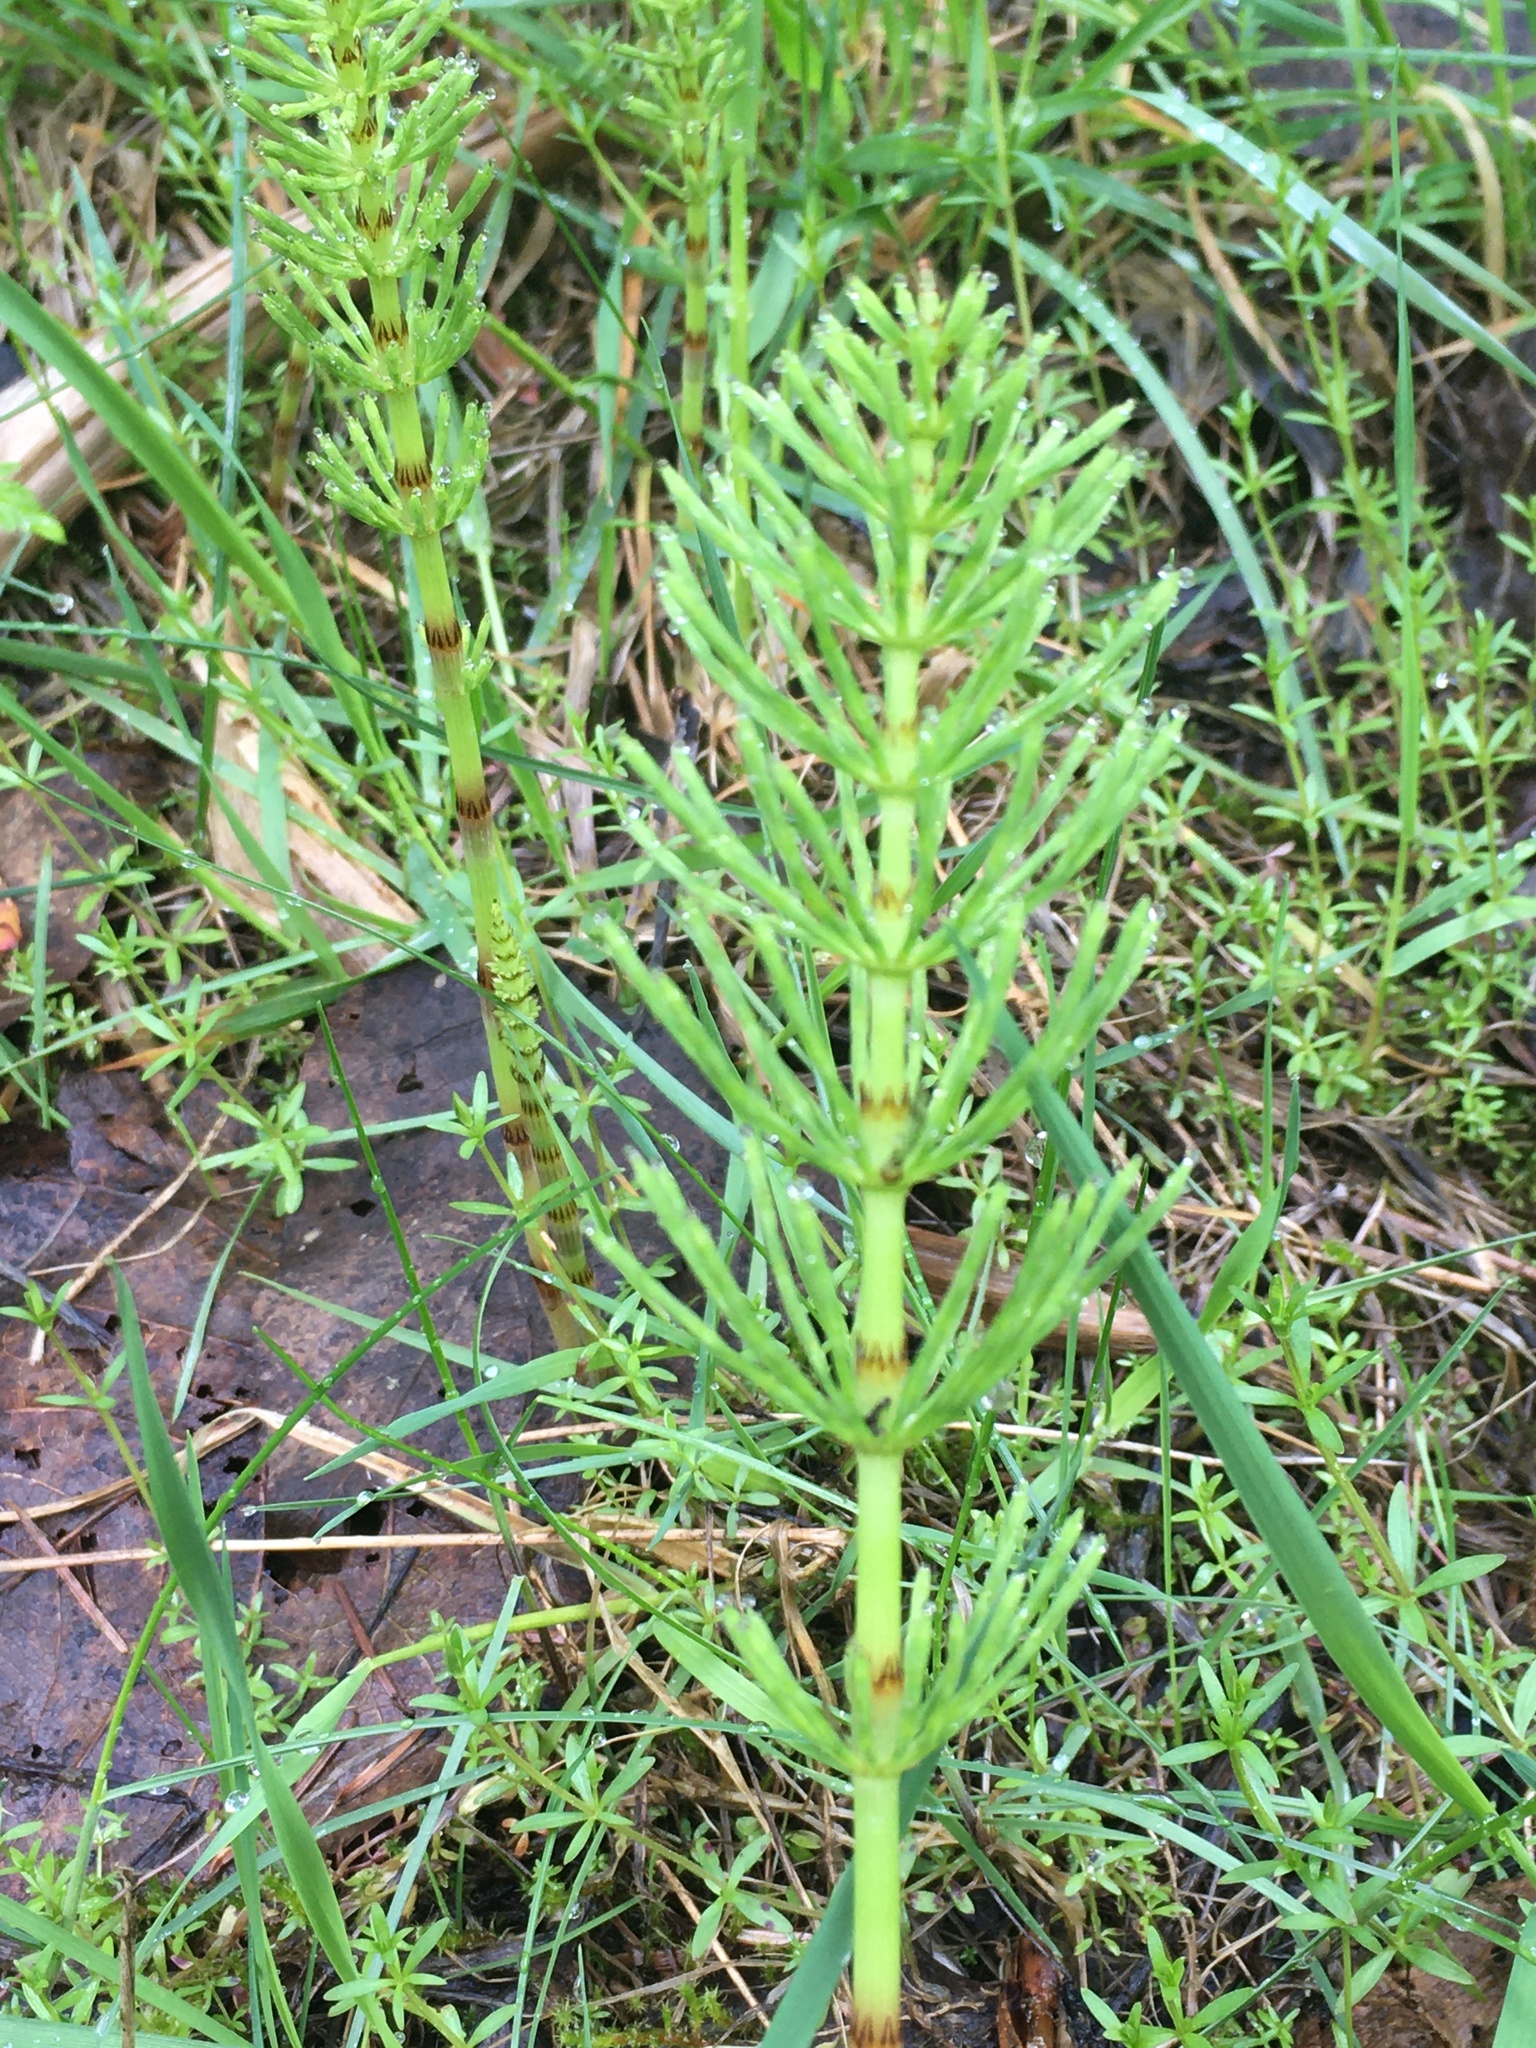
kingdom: Plantae
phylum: Tracheophyta
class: Polypodiopsida
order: Equisetales
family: Equisetaceae
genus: Equisetum
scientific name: Equisetum arvense
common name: Field horsetail
